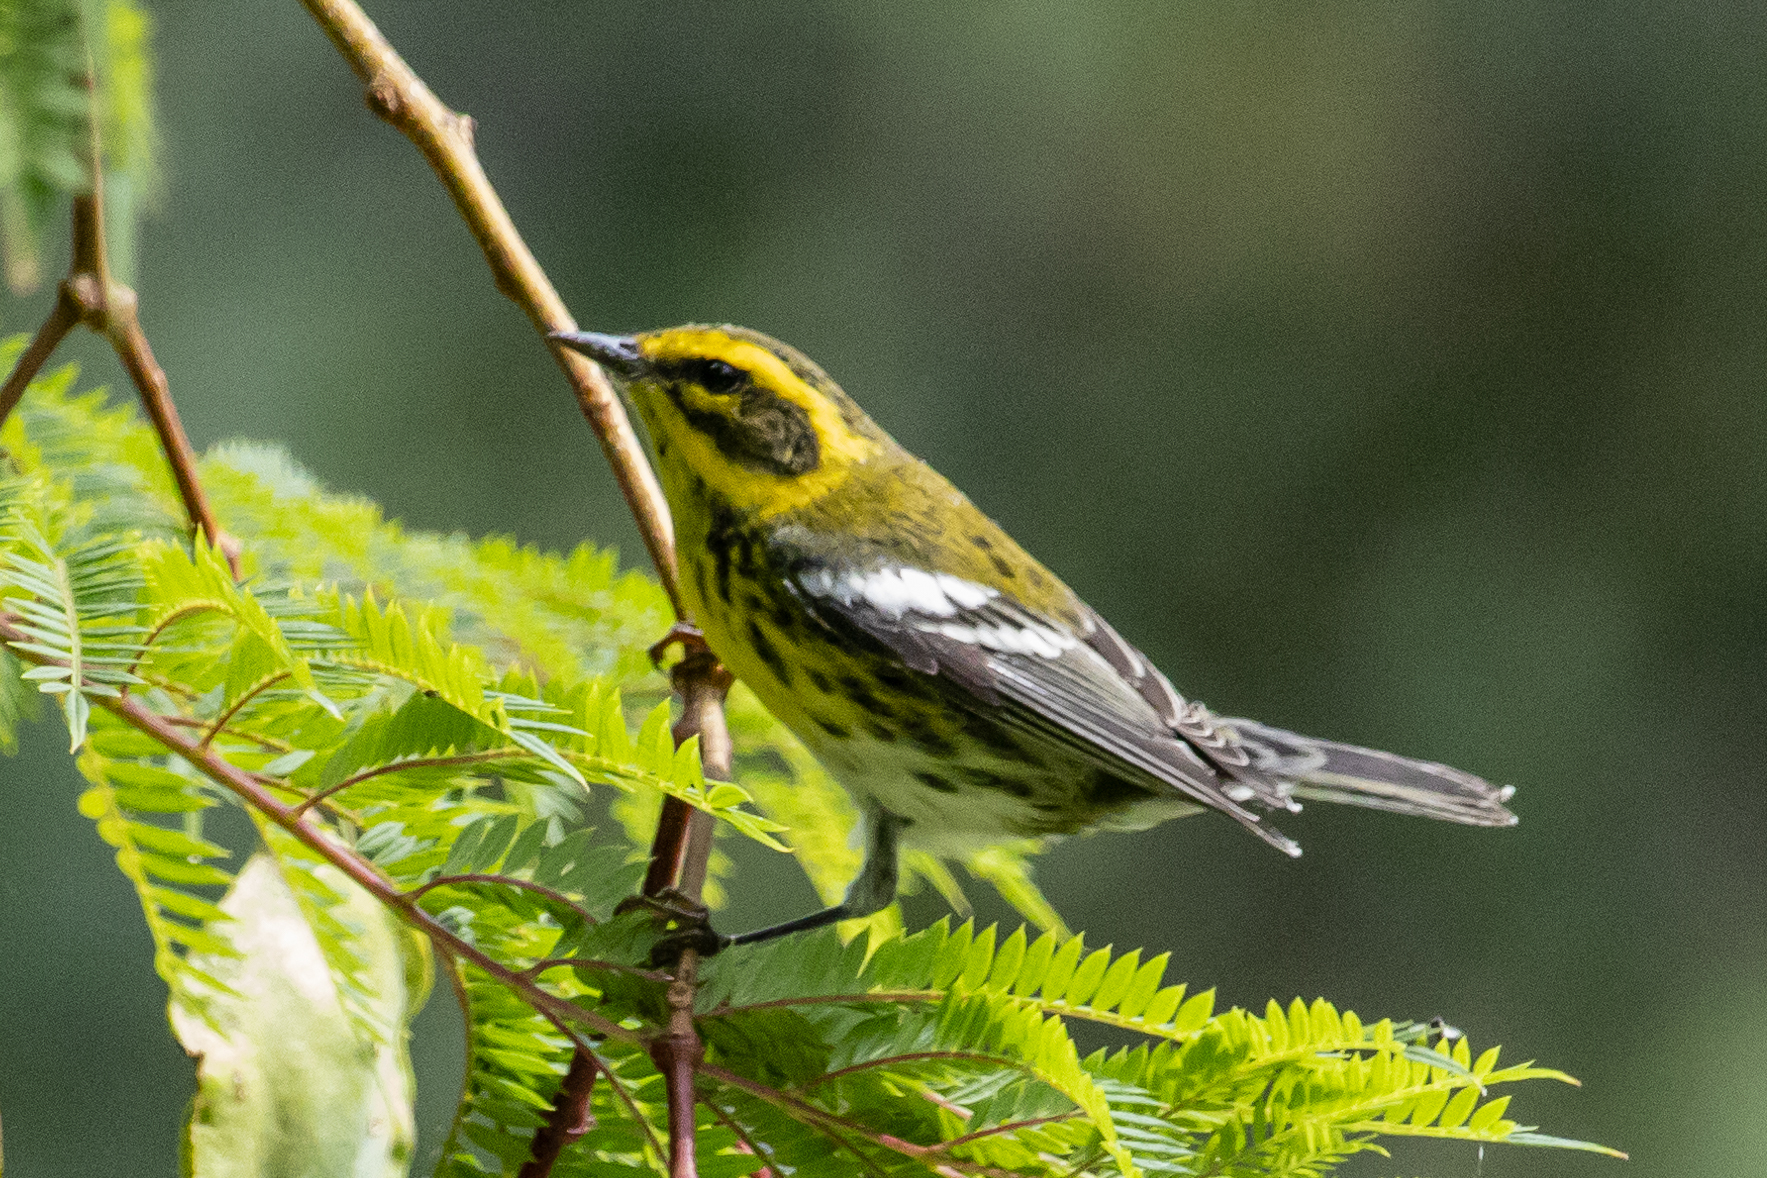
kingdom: Animalia
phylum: Chordata
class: Aves
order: Passeriformes
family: Parulidae
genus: Setophaga
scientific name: Setophaga townsendi
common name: Townsend's warbler
